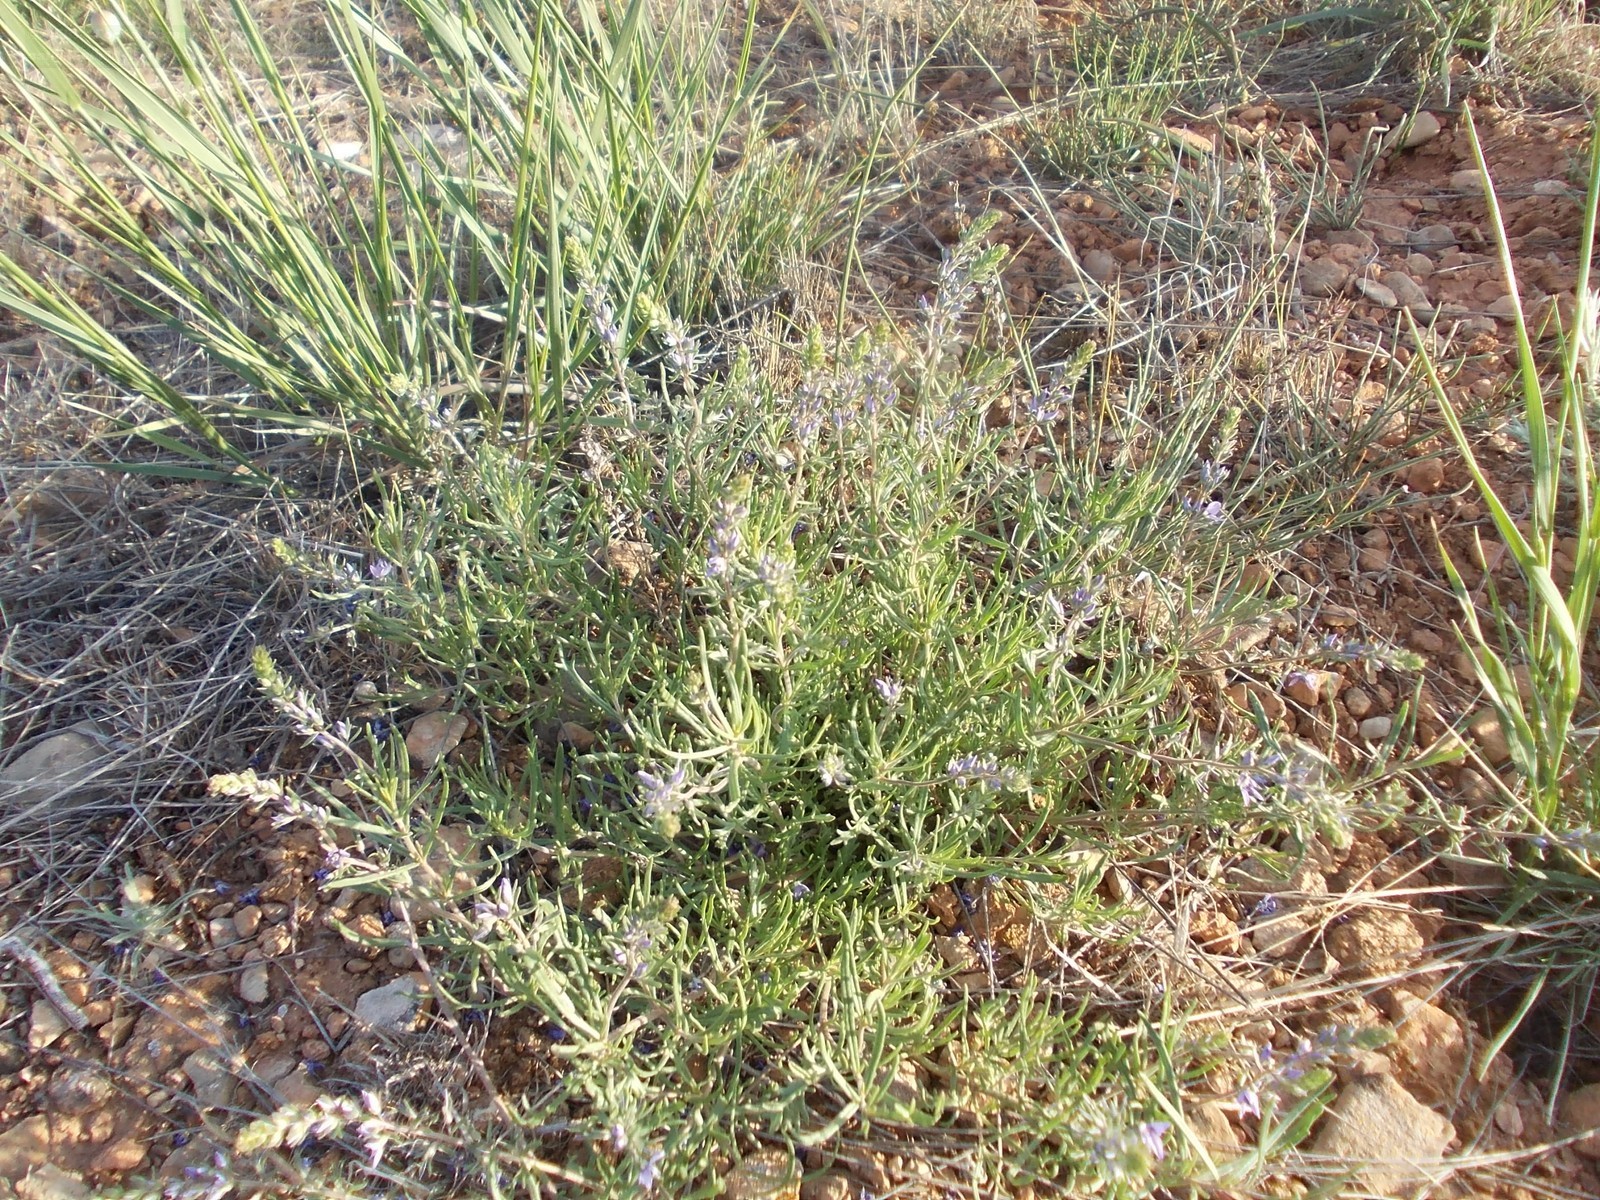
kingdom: Plantae
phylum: Tracheophyta
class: Magnoliopsida
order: Lamiales
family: Plantaginaceae
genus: Veronica
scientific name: Veronica multifida
